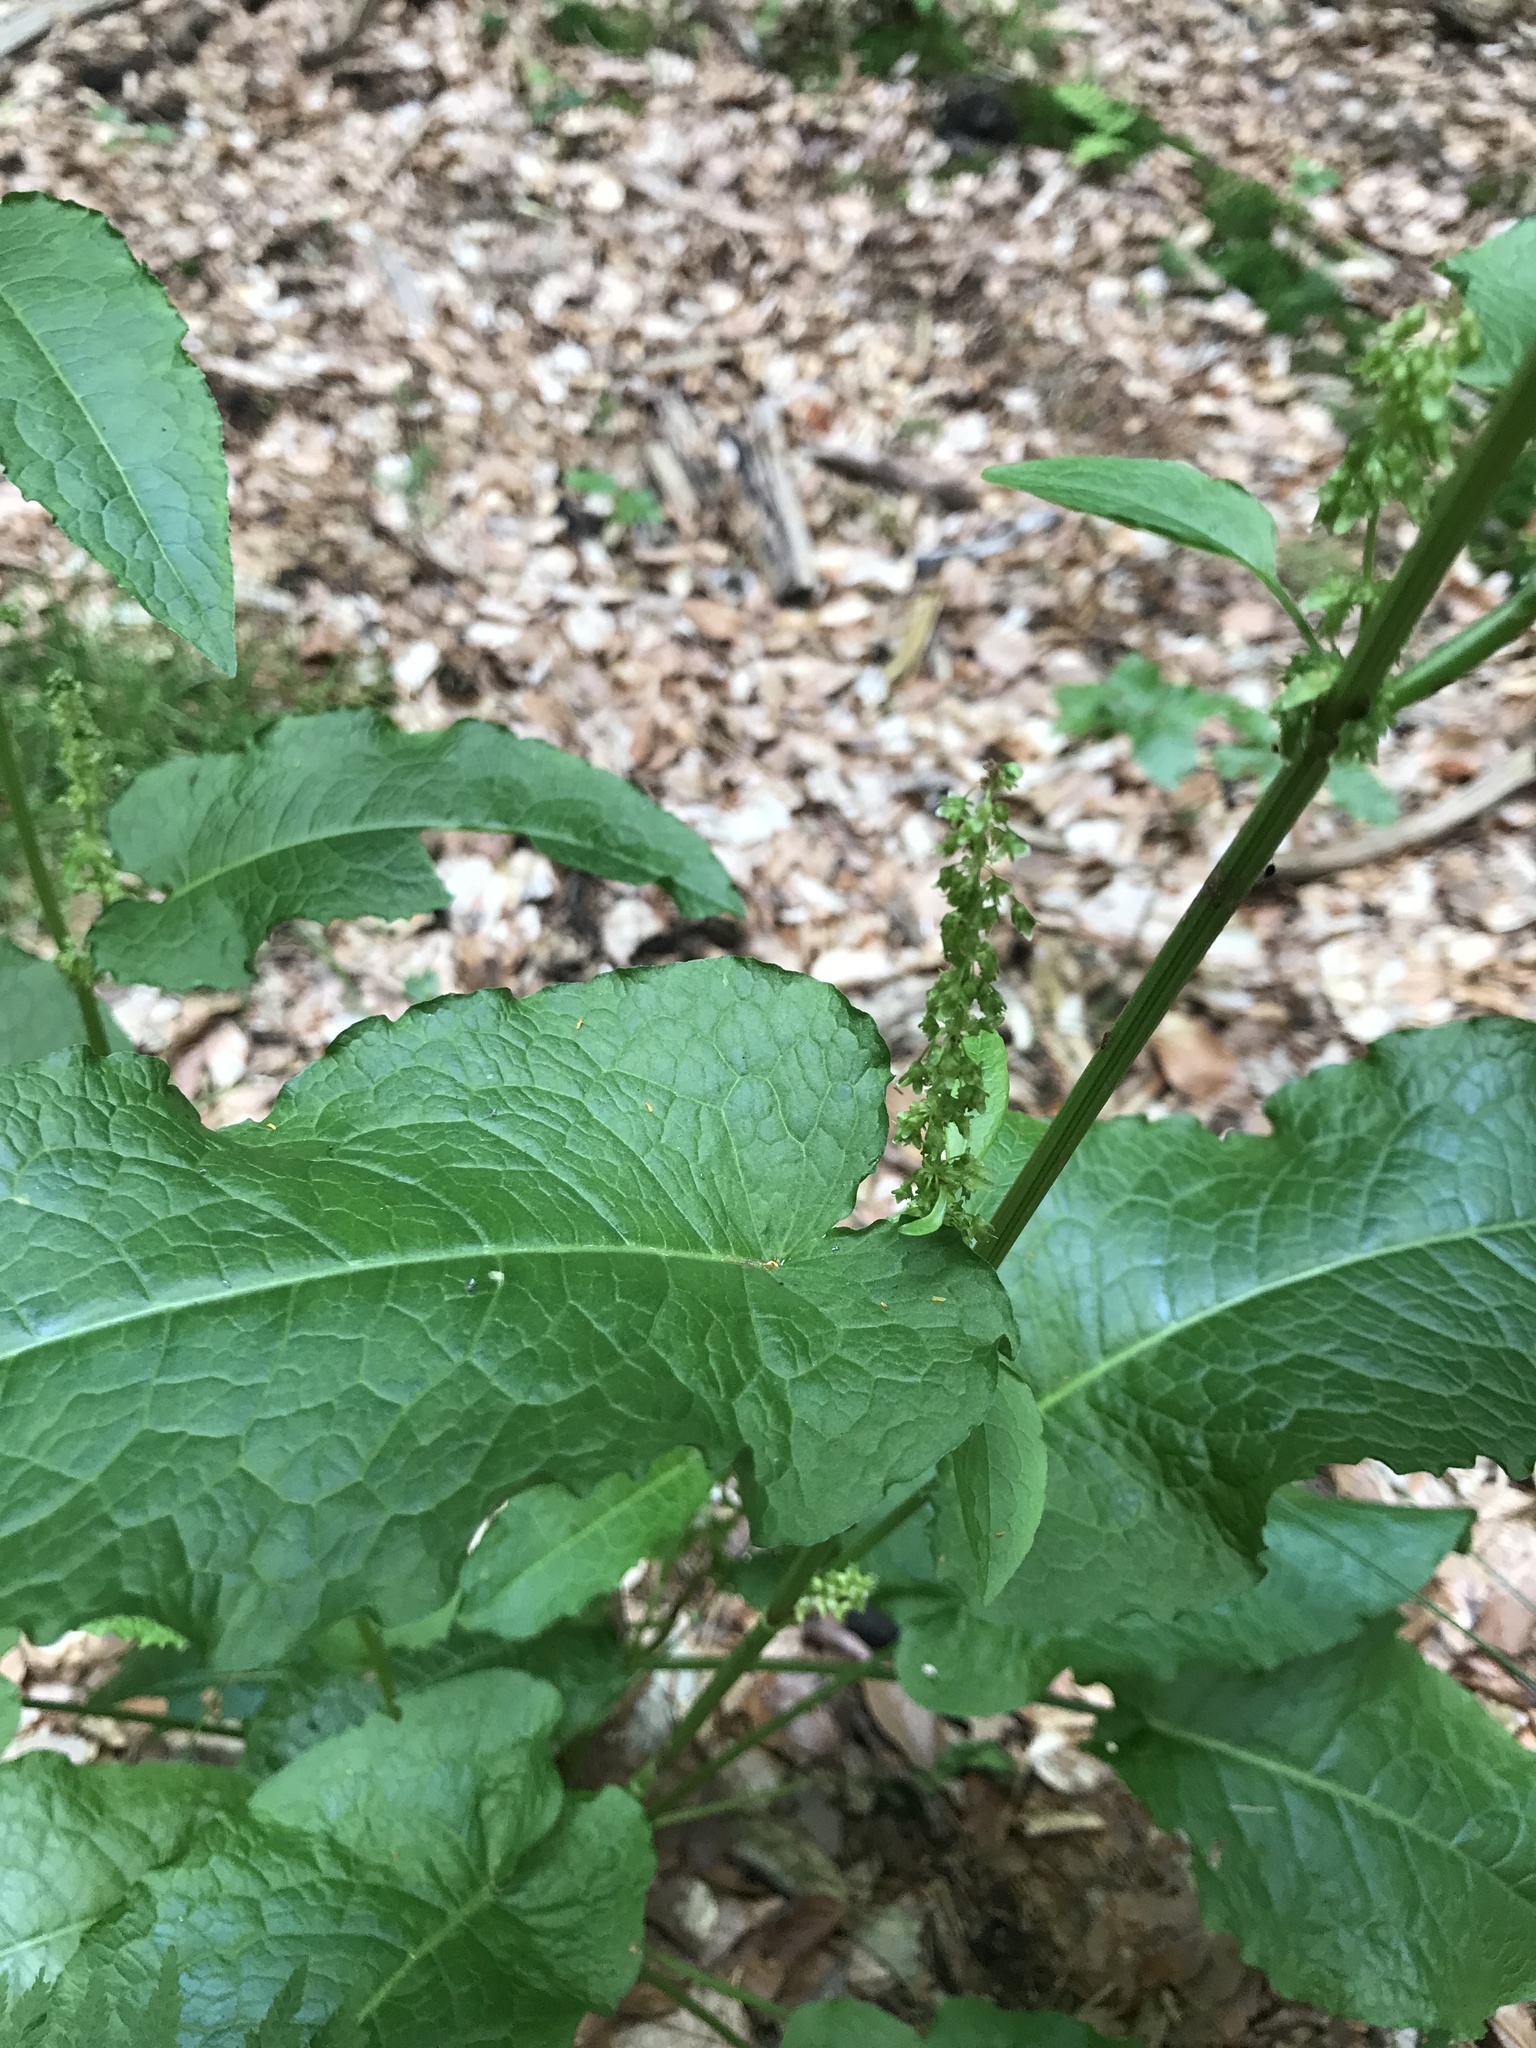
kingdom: Plantae
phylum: Tracheophyta
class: Magnoliopsida
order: Caryophyllales
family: Polygonaceae
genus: Rumex
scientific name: Rumex obtusifolius
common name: Bitter dock
